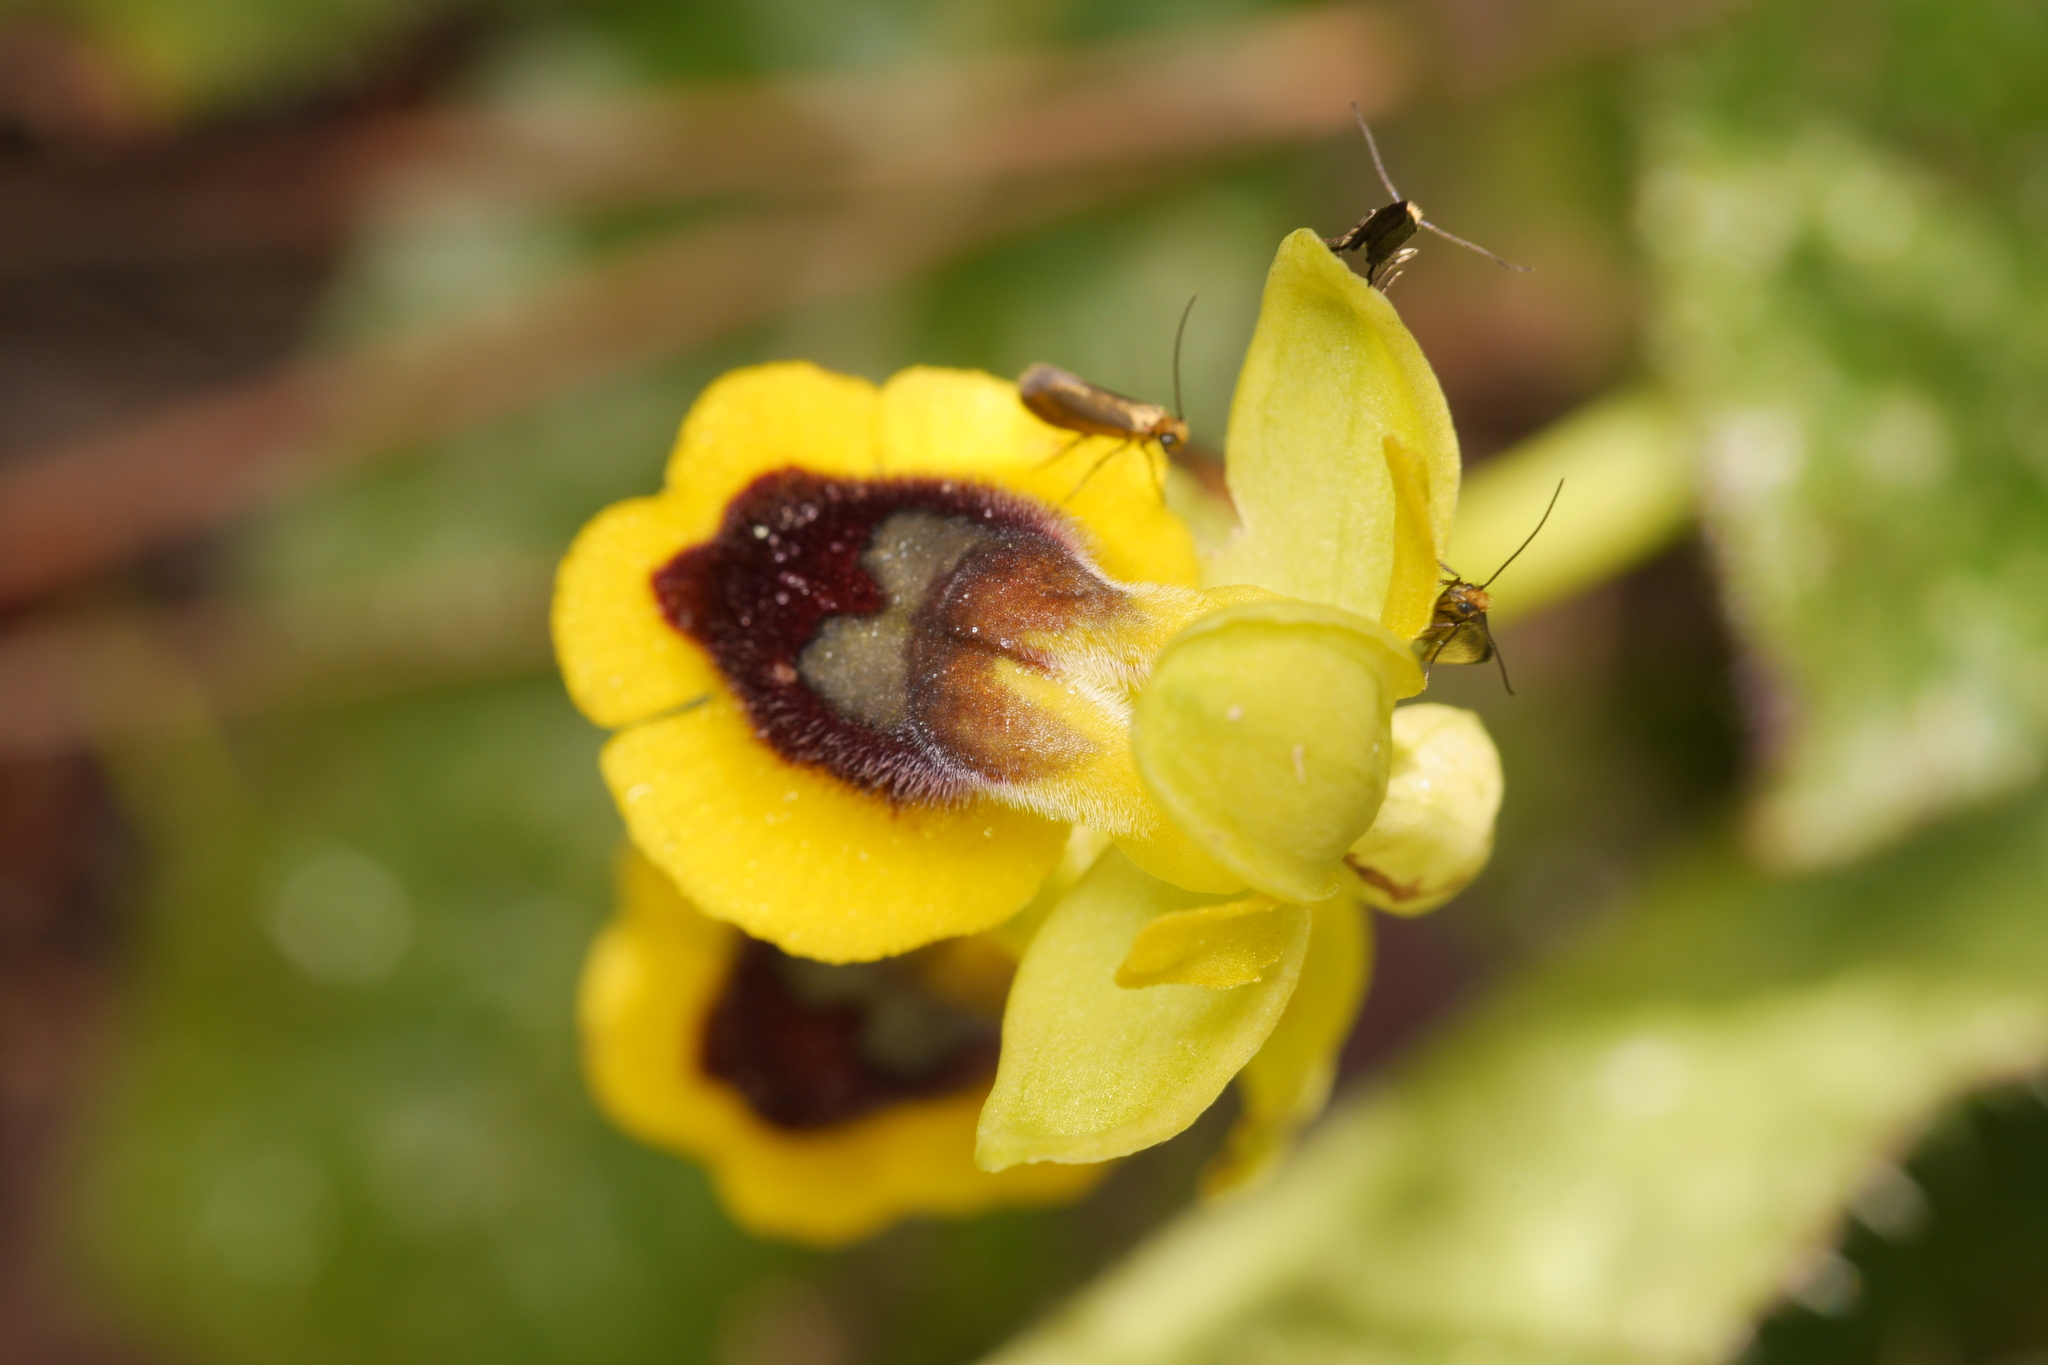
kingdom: Plantae
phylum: Tracheophyta
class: Liliopsida
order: Asparagales
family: Orchidaceae
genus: Ophrys
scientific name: Ophrys lutea
